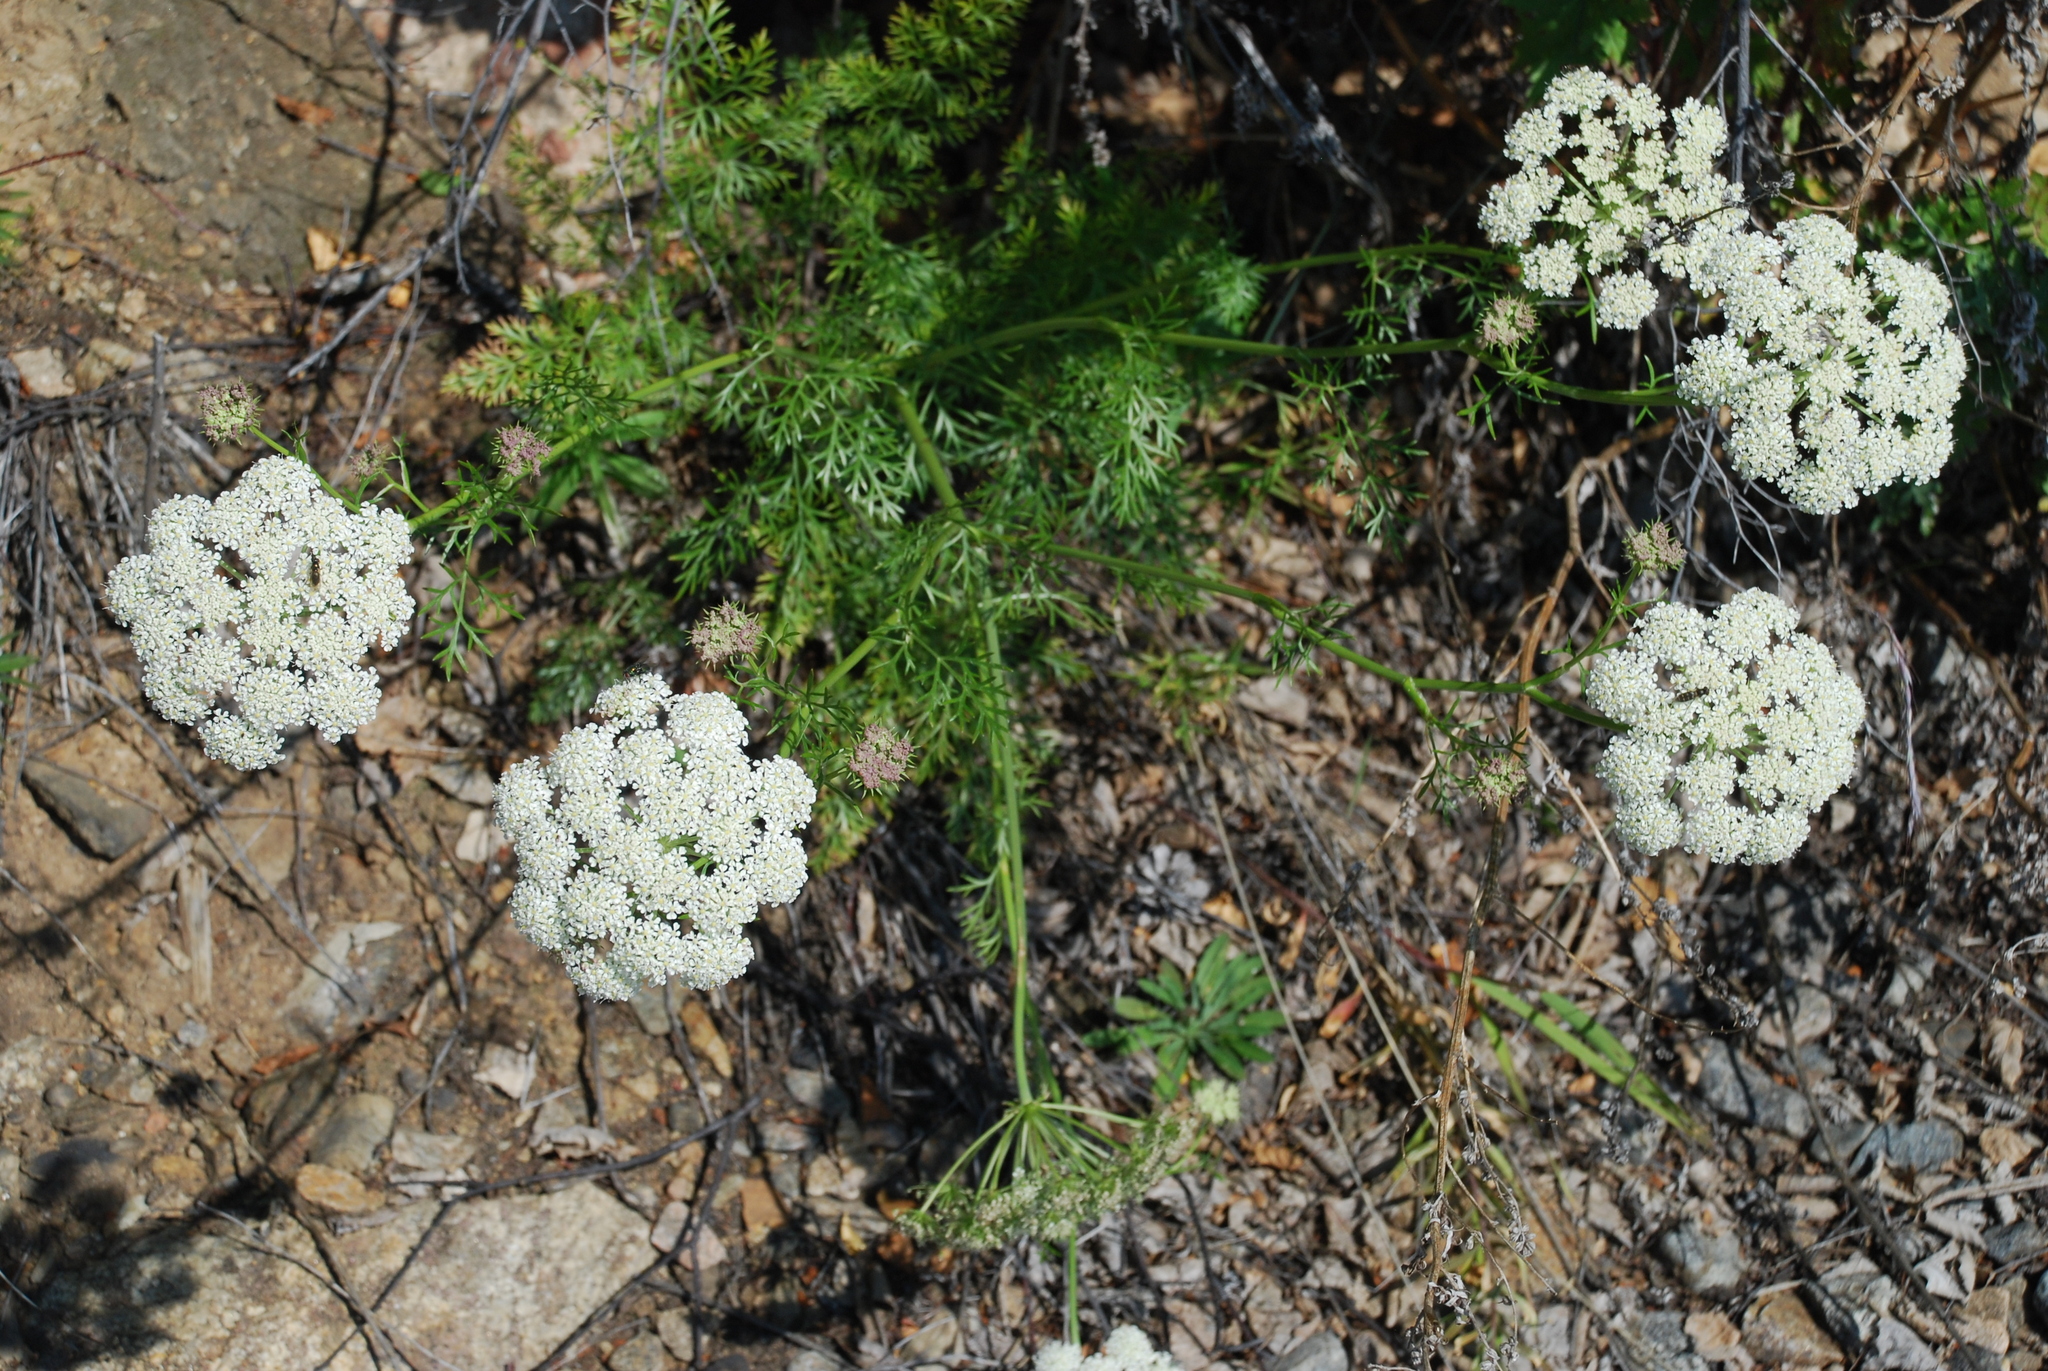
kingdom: Plantae
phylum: Tracheophyta
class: Magnoliopsida
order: Apiales
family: Apiaceae
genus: Kitagawia
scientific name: Kitagawia baicalensis
